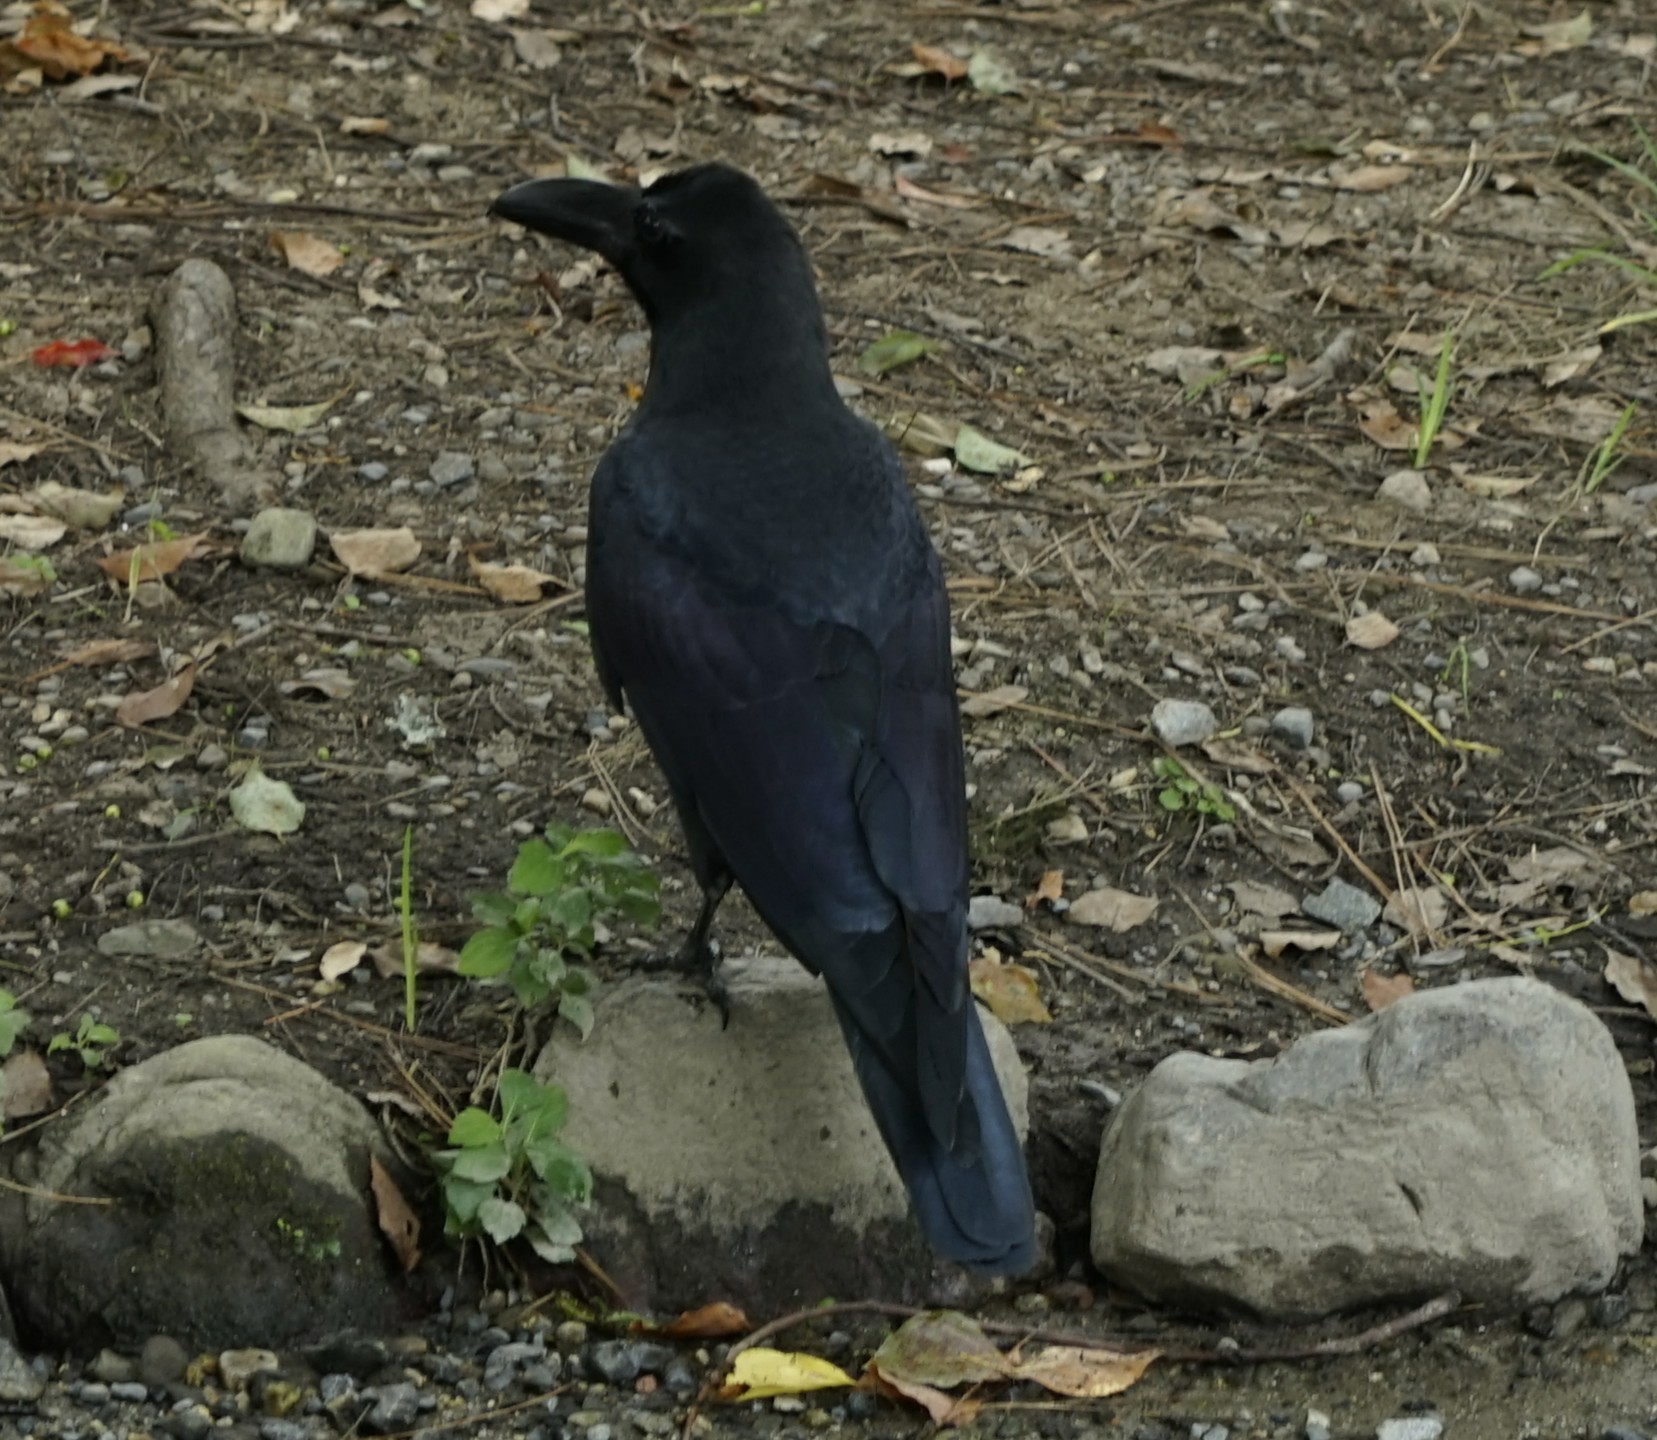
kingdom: Animalia
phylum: Chordata
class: Aves
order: Passeriformes
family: Corvidae
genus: Corvus
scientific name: Corvus macrorhynchos
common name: Large-billed crow
